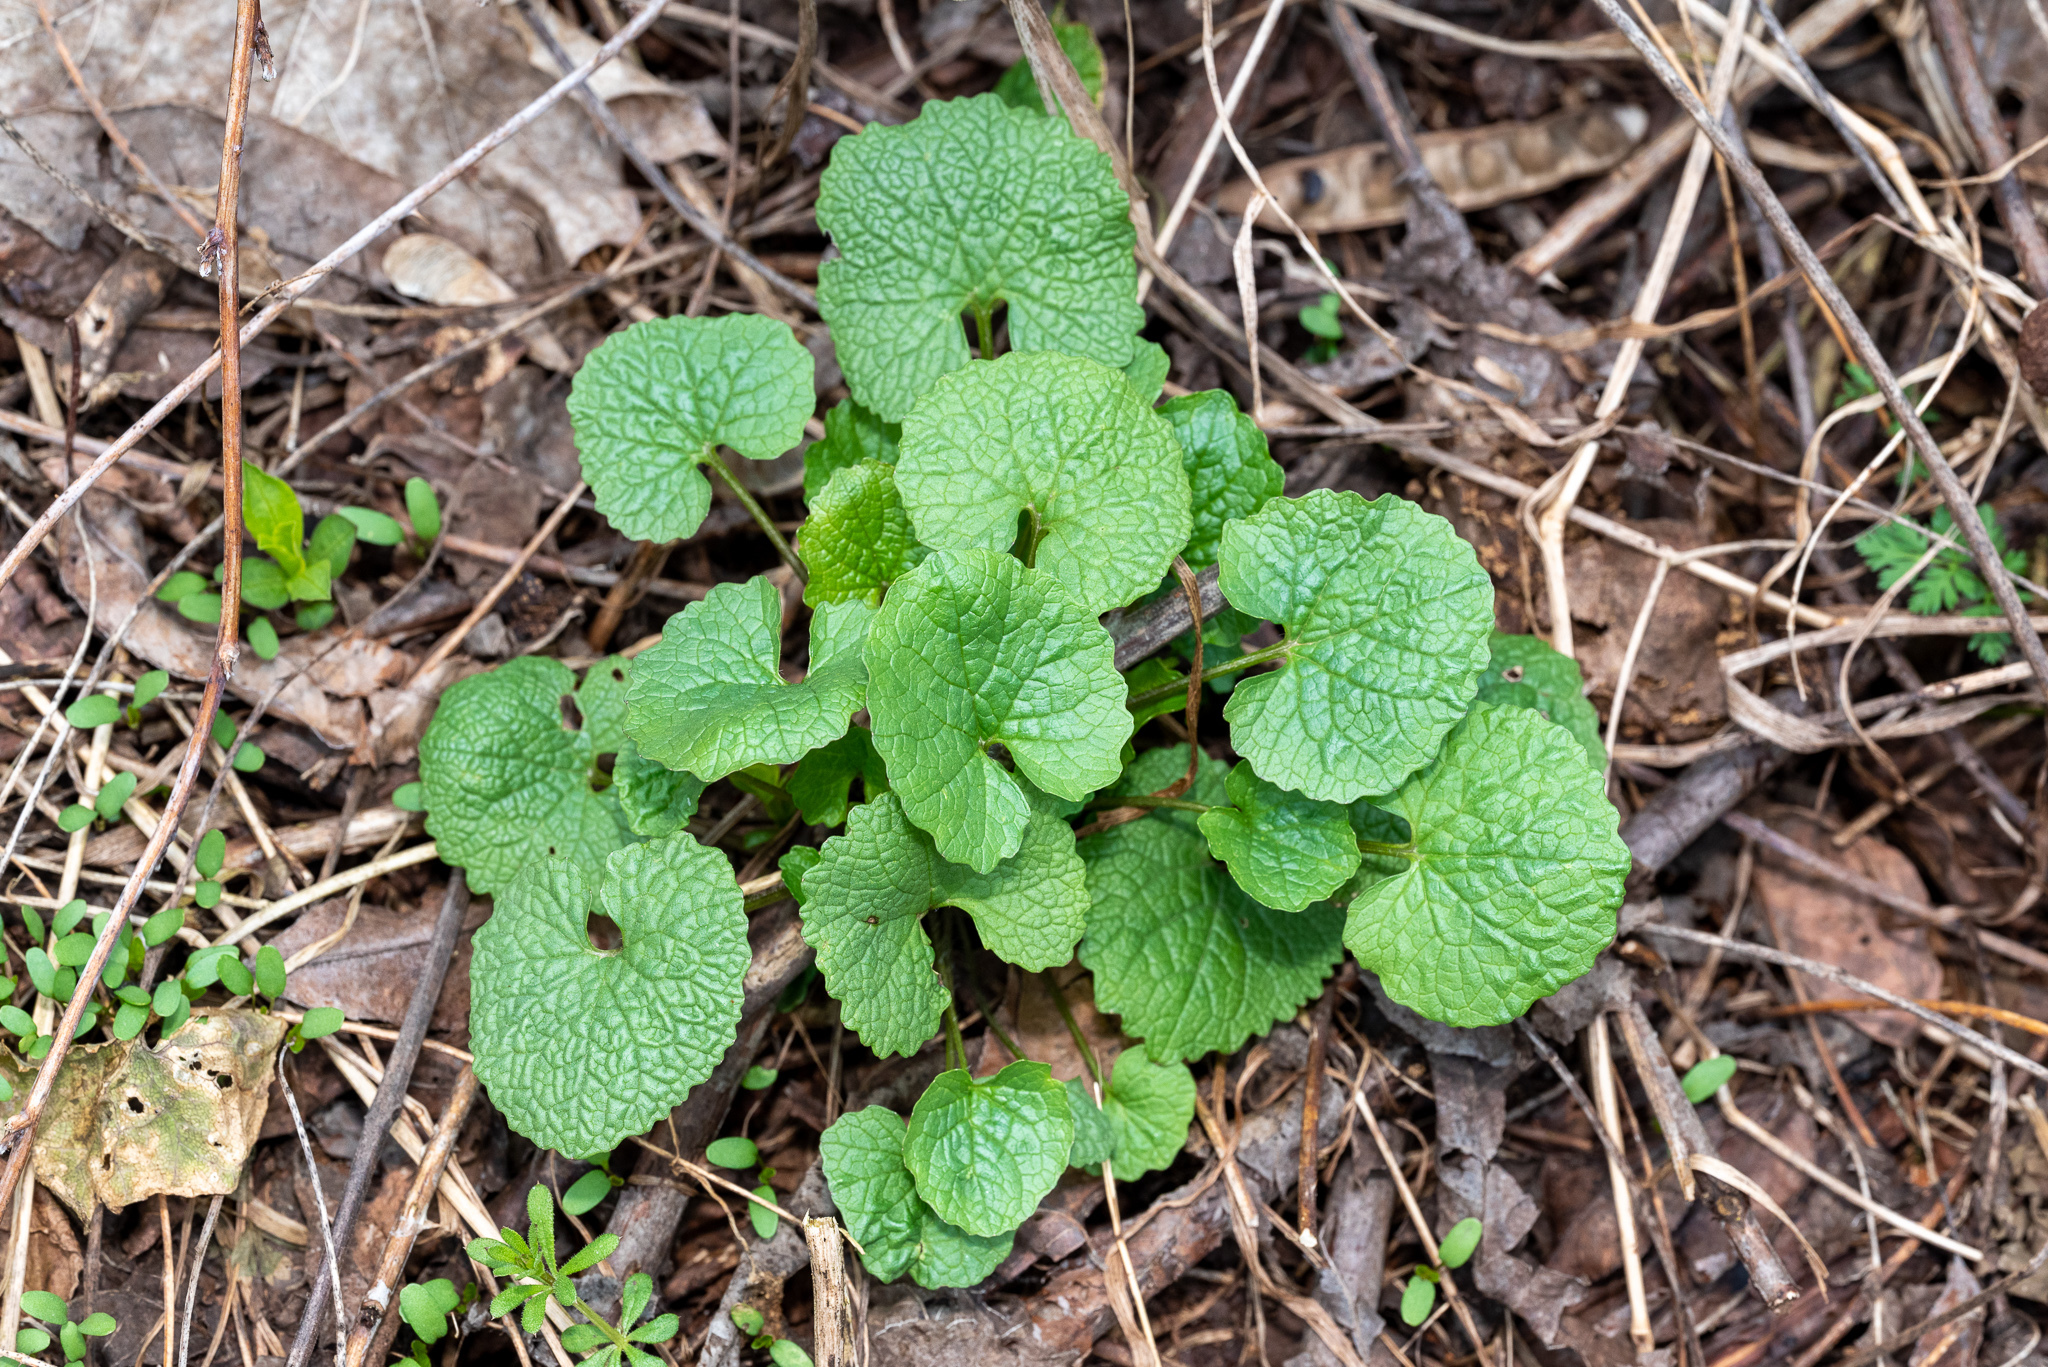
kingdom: Plantae
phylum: Tracheophyta
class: Magnoliopsida
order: Brassicales
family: Brassicaceae
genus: Alliaria
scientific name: Alliaria petiolata
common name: Garlic mustard
